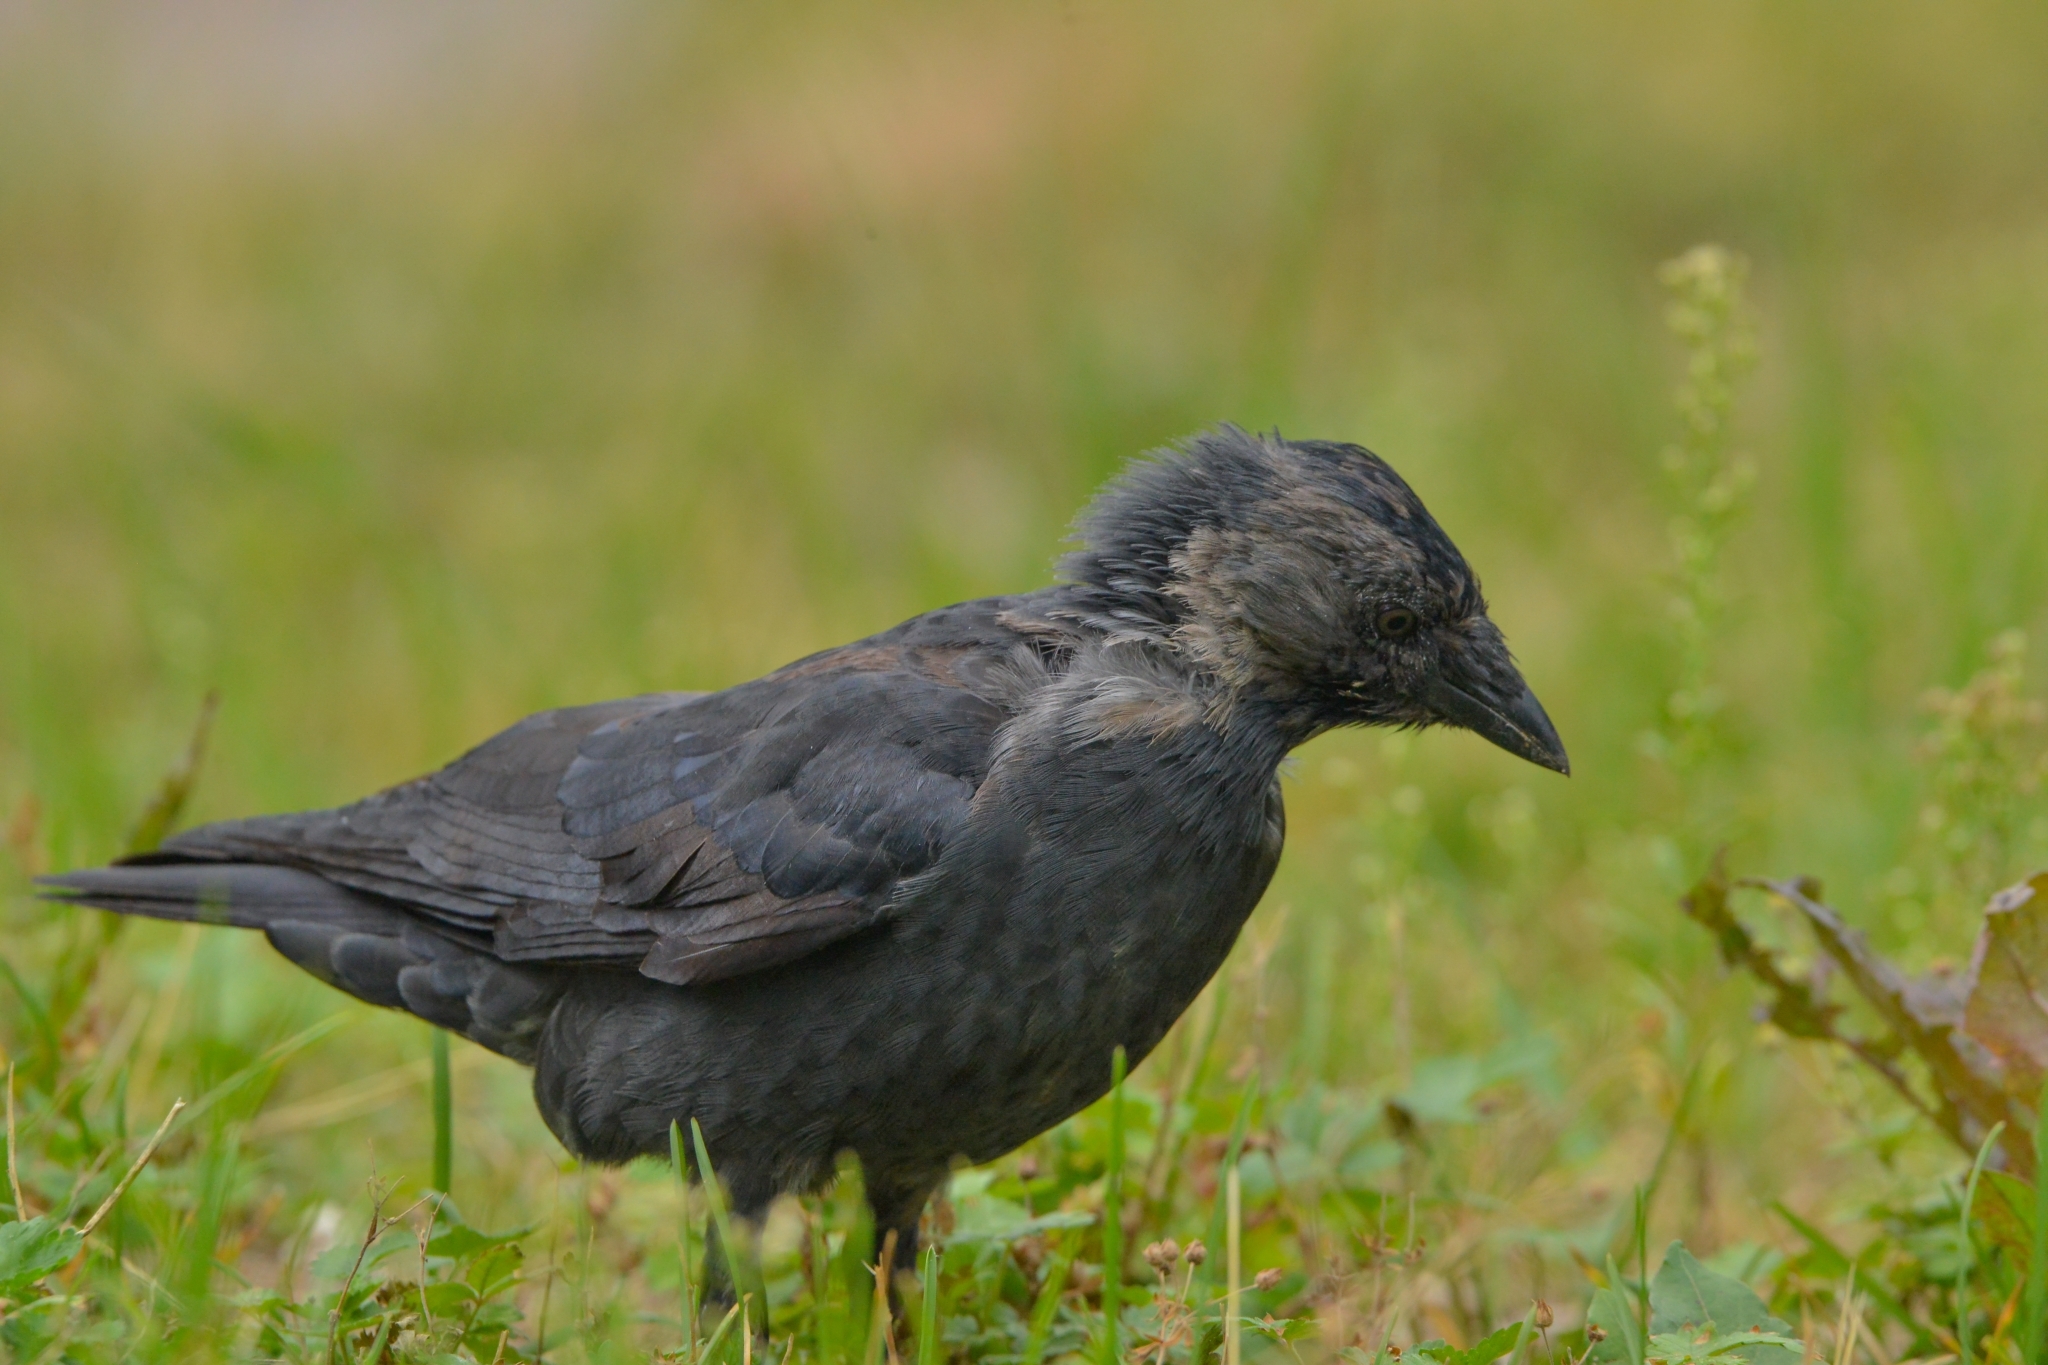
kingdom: Animalia
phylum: Chordata
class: Aves
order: Passeriformes
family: Corvidae
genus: Coloeus
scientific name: Coloeus monedula
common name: Western jackdaw
